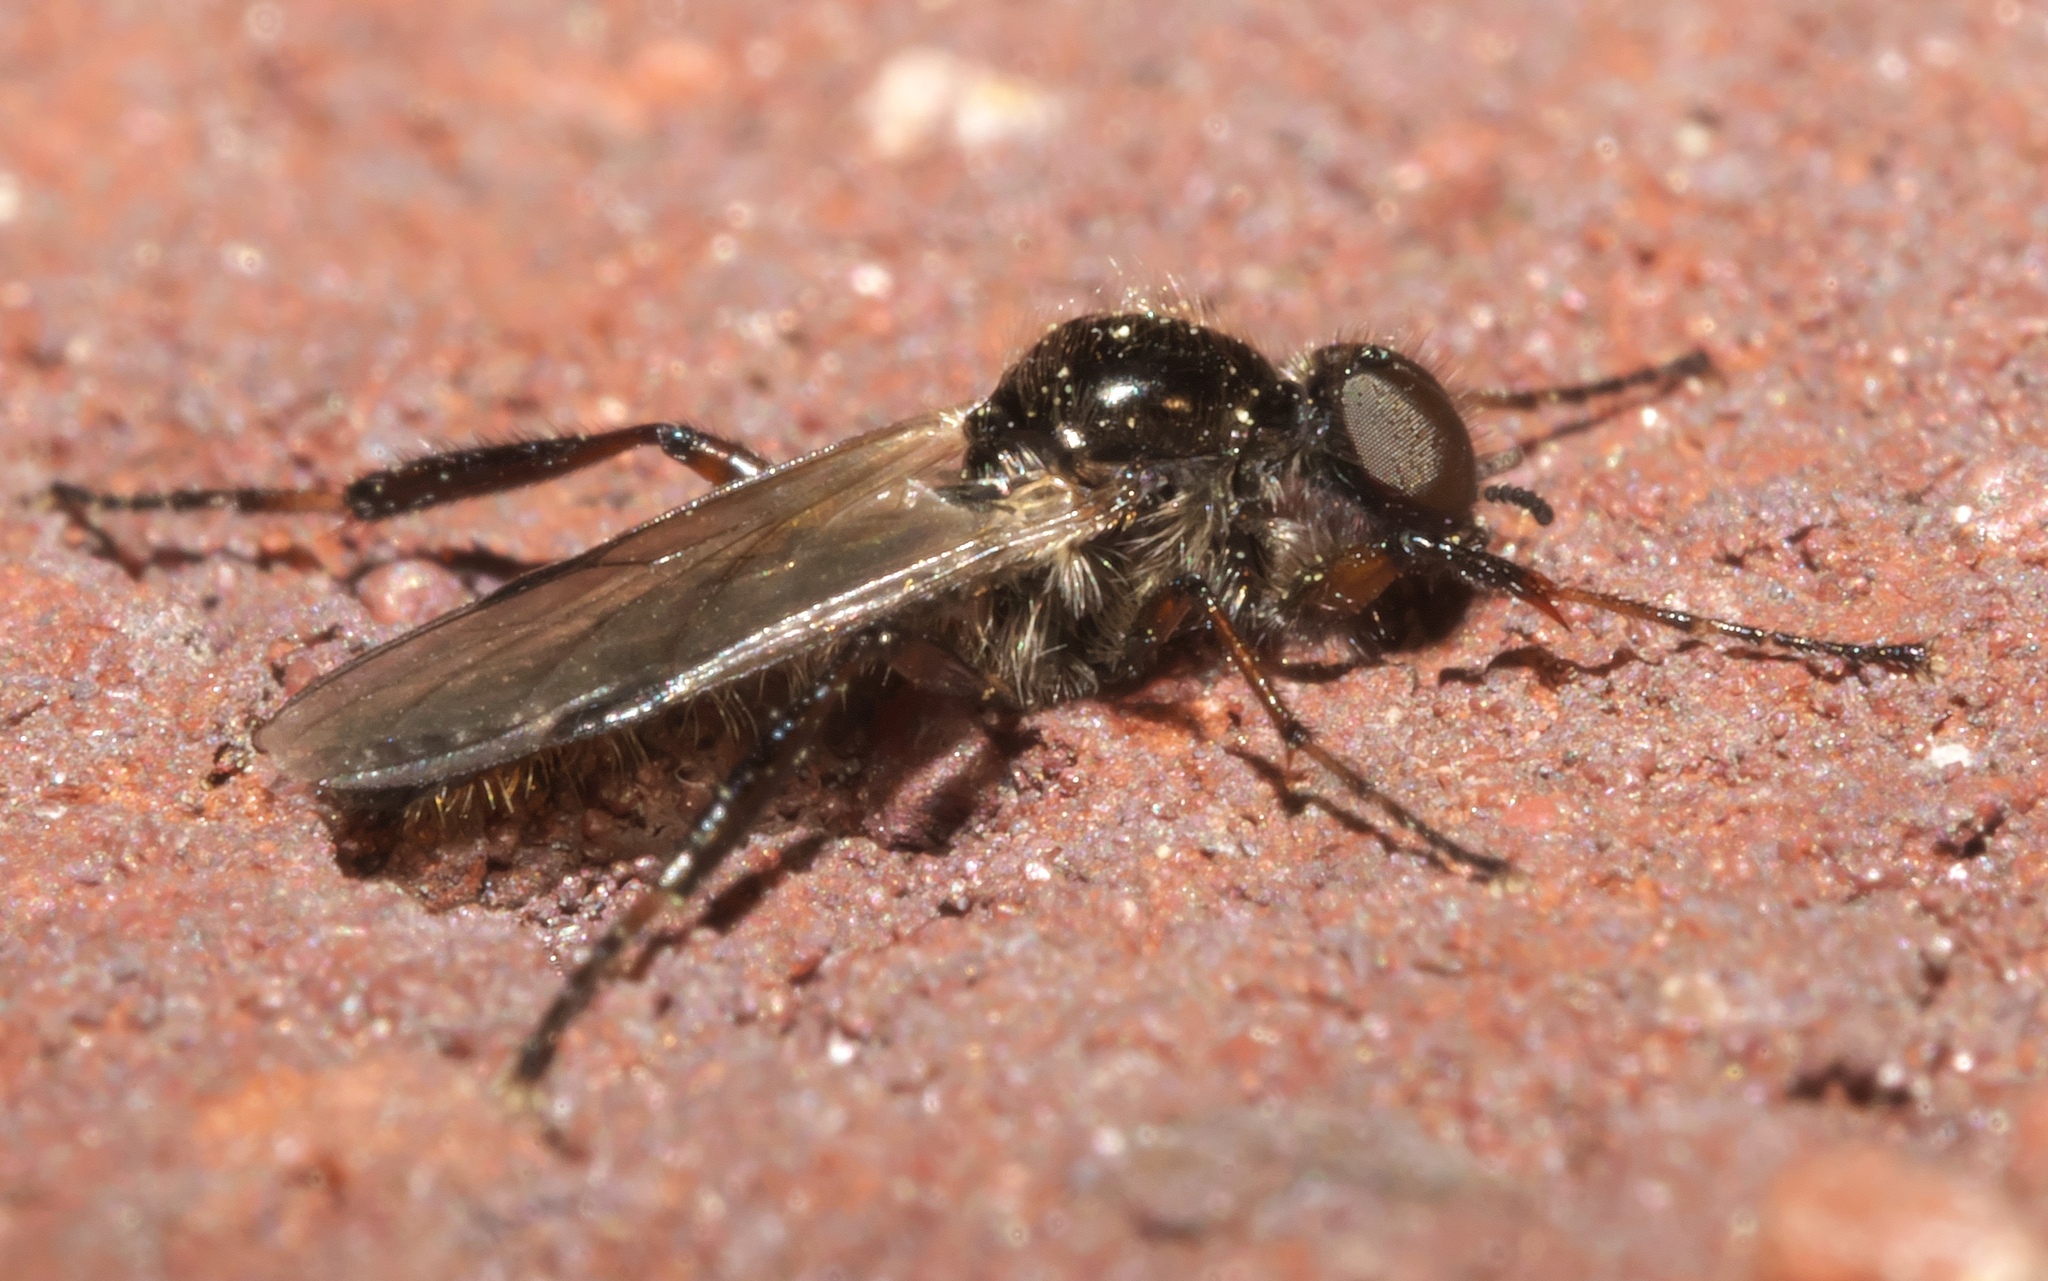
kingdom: Animalia
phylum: Arthropoda
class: Insecta
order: Diptera
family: Bibionidae
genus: Bibio
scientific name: Bibio articulatus
